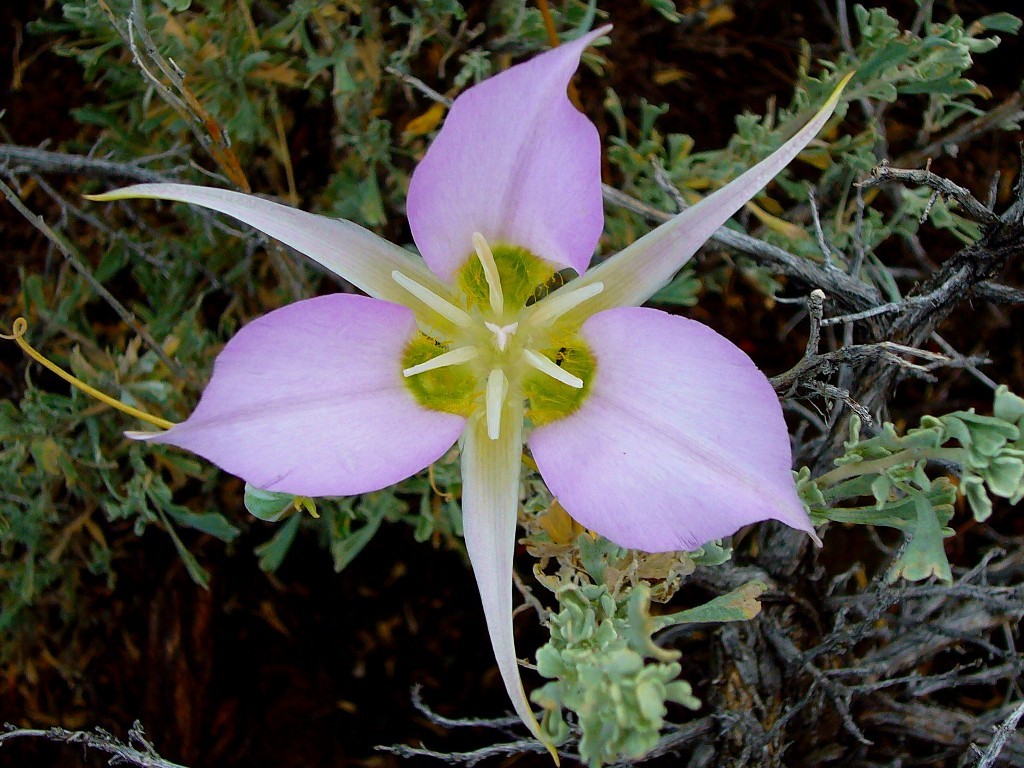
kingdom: Plantae
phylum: Tracheophyta
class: Liliopsida
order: Liliales
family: Liliaceae
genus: Calochortus
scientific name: Calochortus macrocarpus
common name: Green-band mariposa lily
